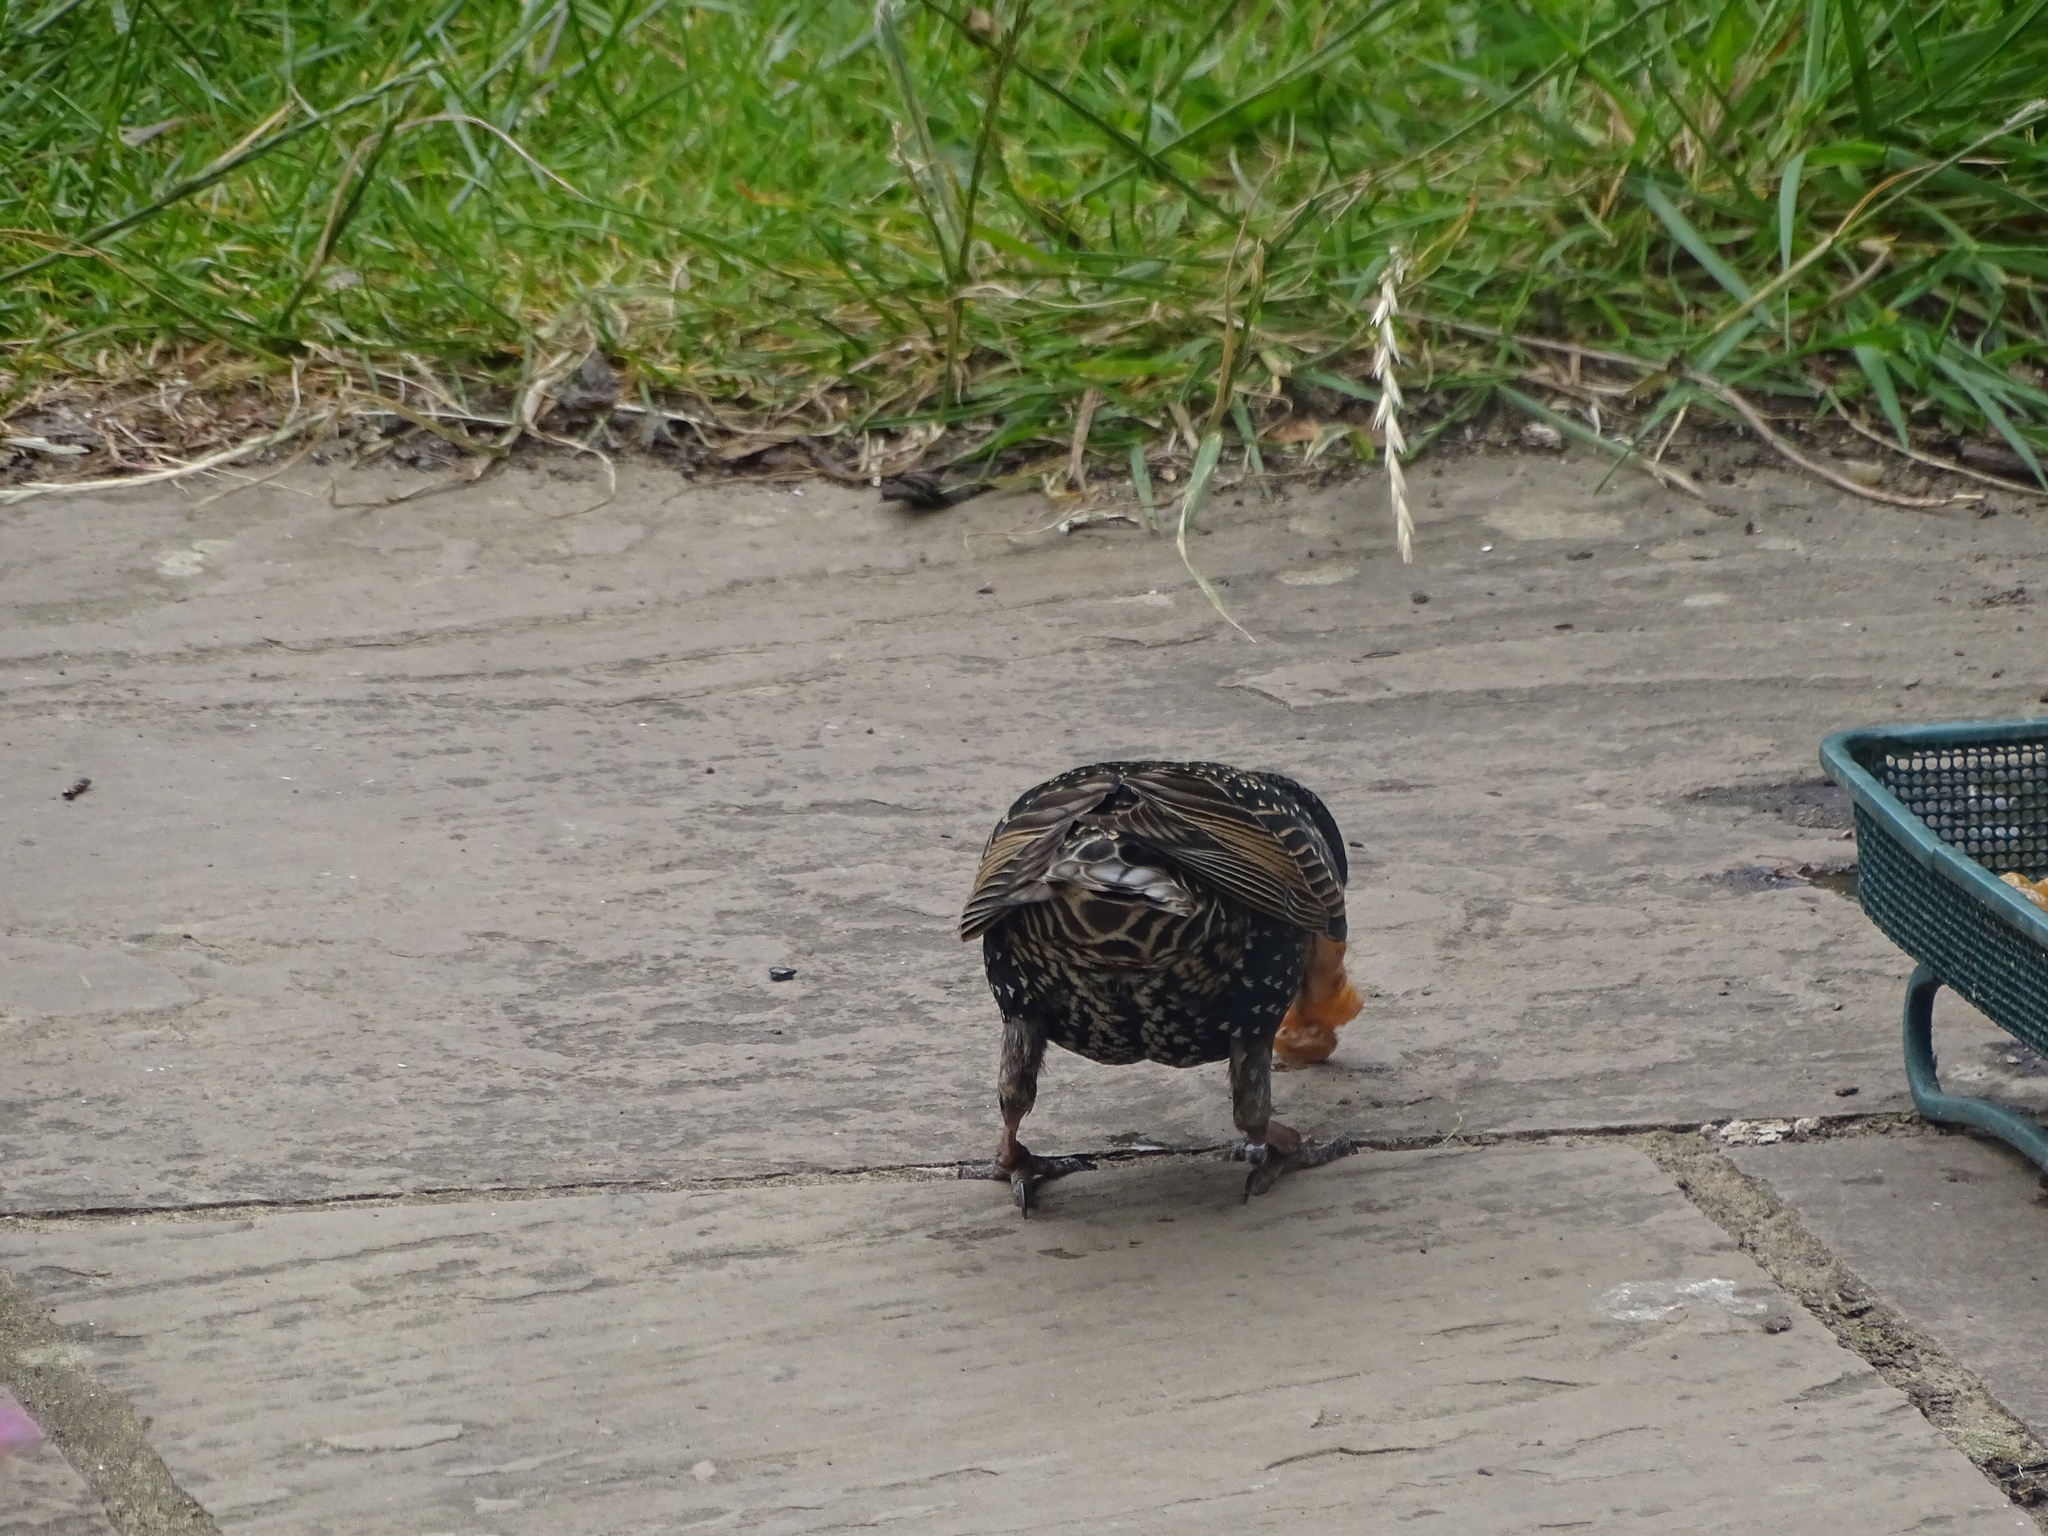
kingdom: Animalia
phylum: Chordata
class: Aves
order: Passeriformes
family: Sturnidae
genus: Sturnus
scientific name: Sturnus vulgaris
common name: Common starling
